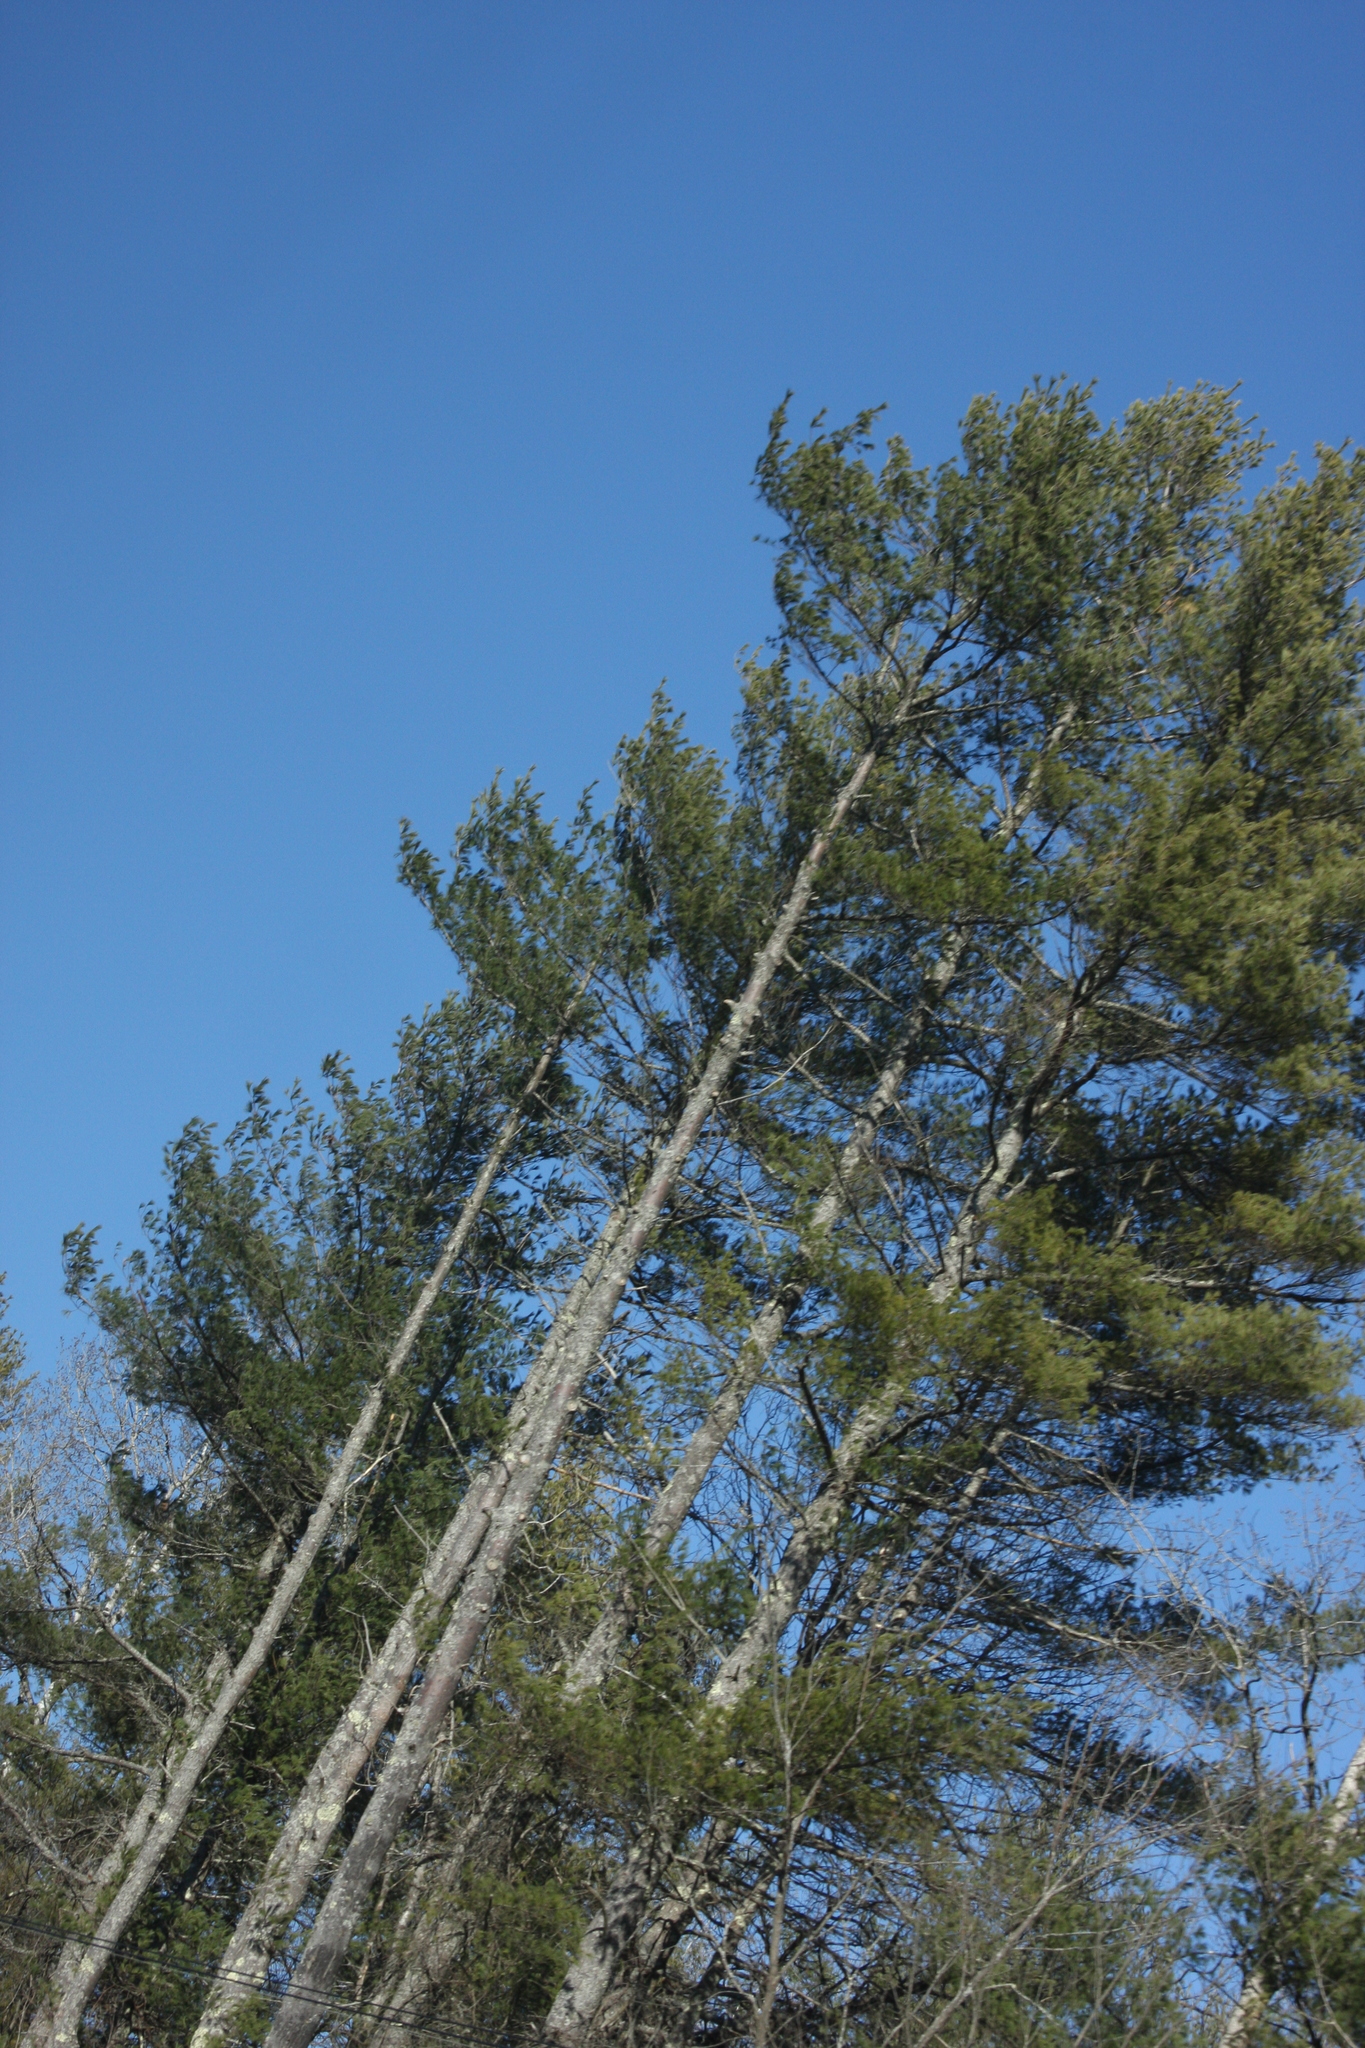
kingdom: Plantae
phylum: Tracheophyta
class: Pinopsida
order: Pinales
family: Pinaceae
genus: Pinus
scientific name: Pinus strobus
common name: Weymouth pine
